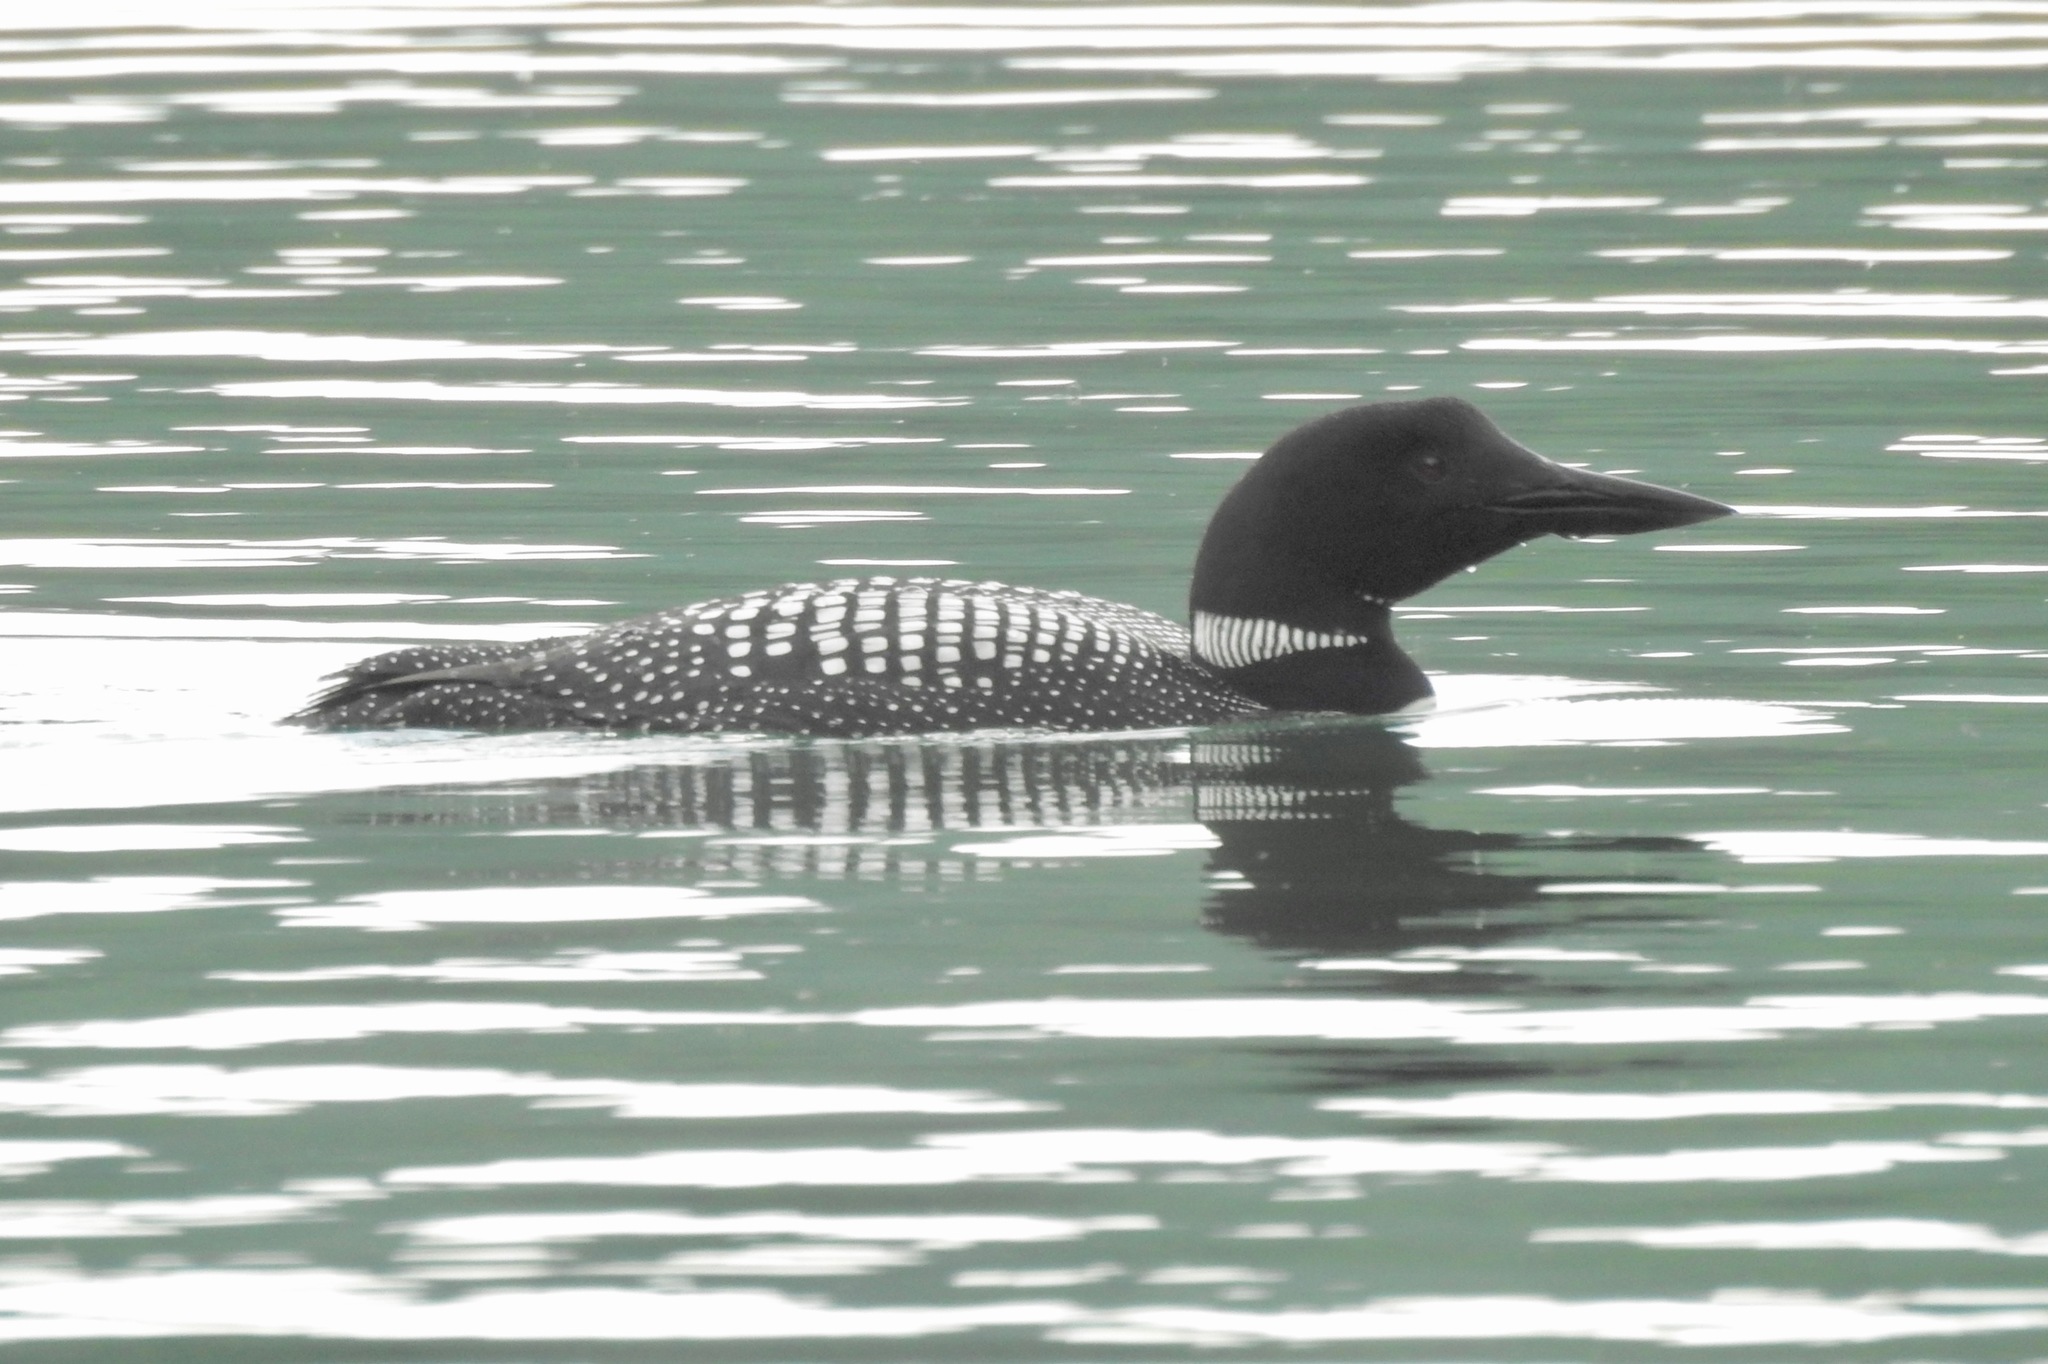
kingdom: Animalia
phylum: Chordata
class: Aves
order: Gaviiformes
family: Gaviidae
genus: Gavia
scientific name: Gavia immer
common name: Common loon
